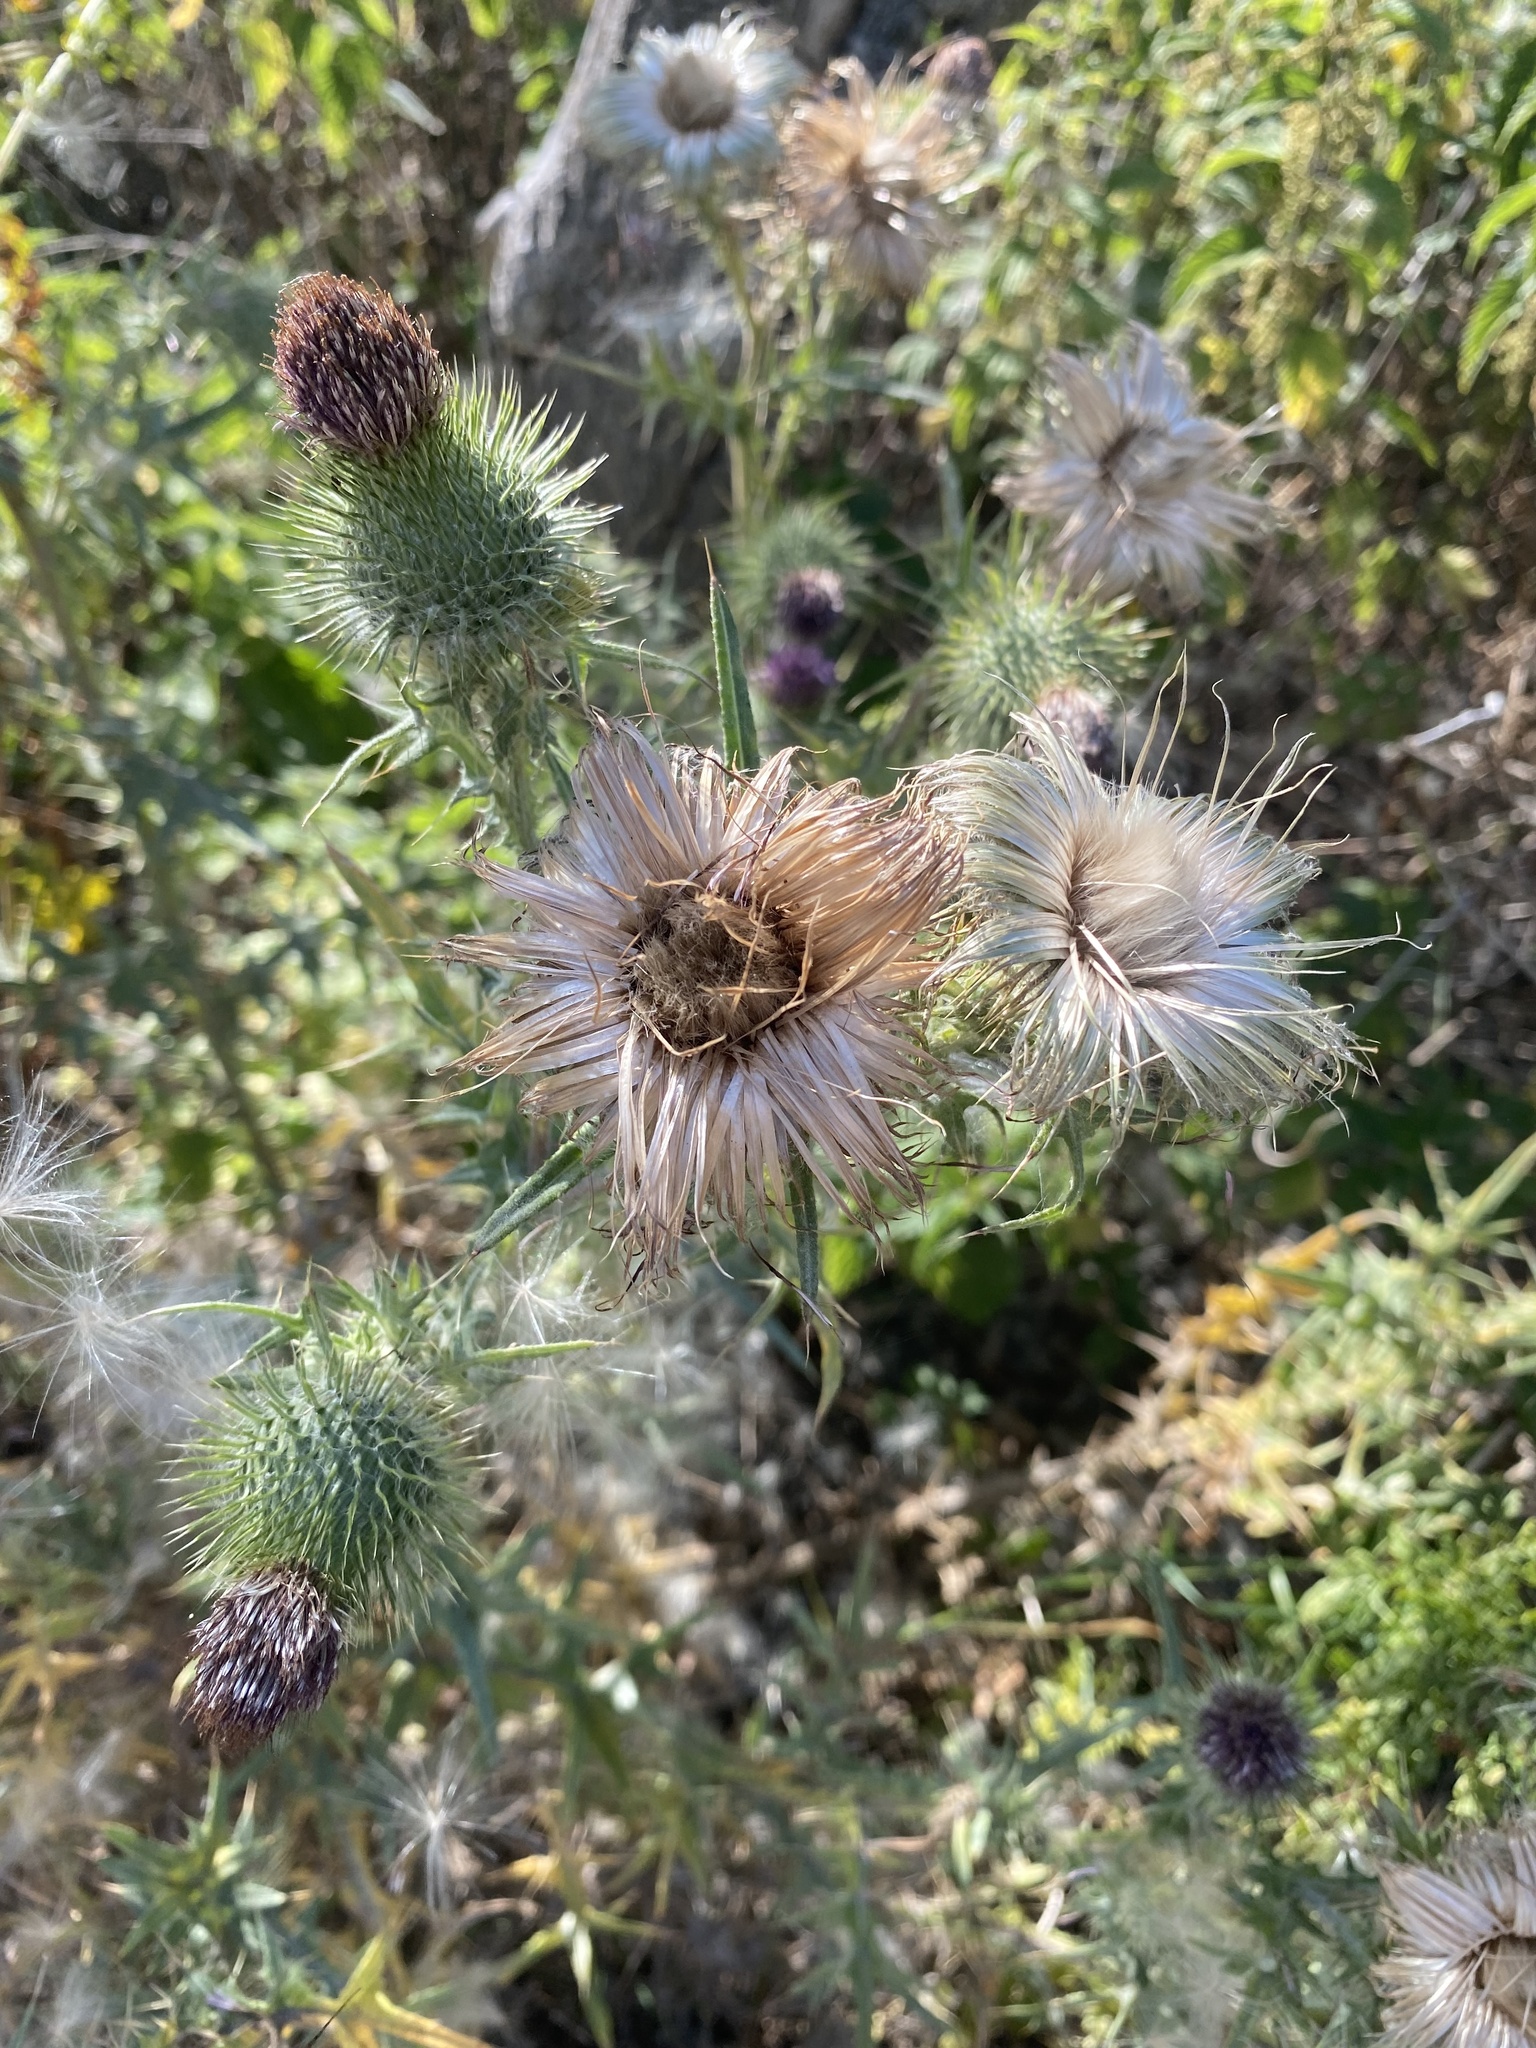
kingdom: Plantae
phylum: Tracheophyta
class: Magnoliopsida
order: Asterales
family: Asteraceae
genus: Cirsium
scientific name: Cirsium vulgare
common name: Bull thistle
